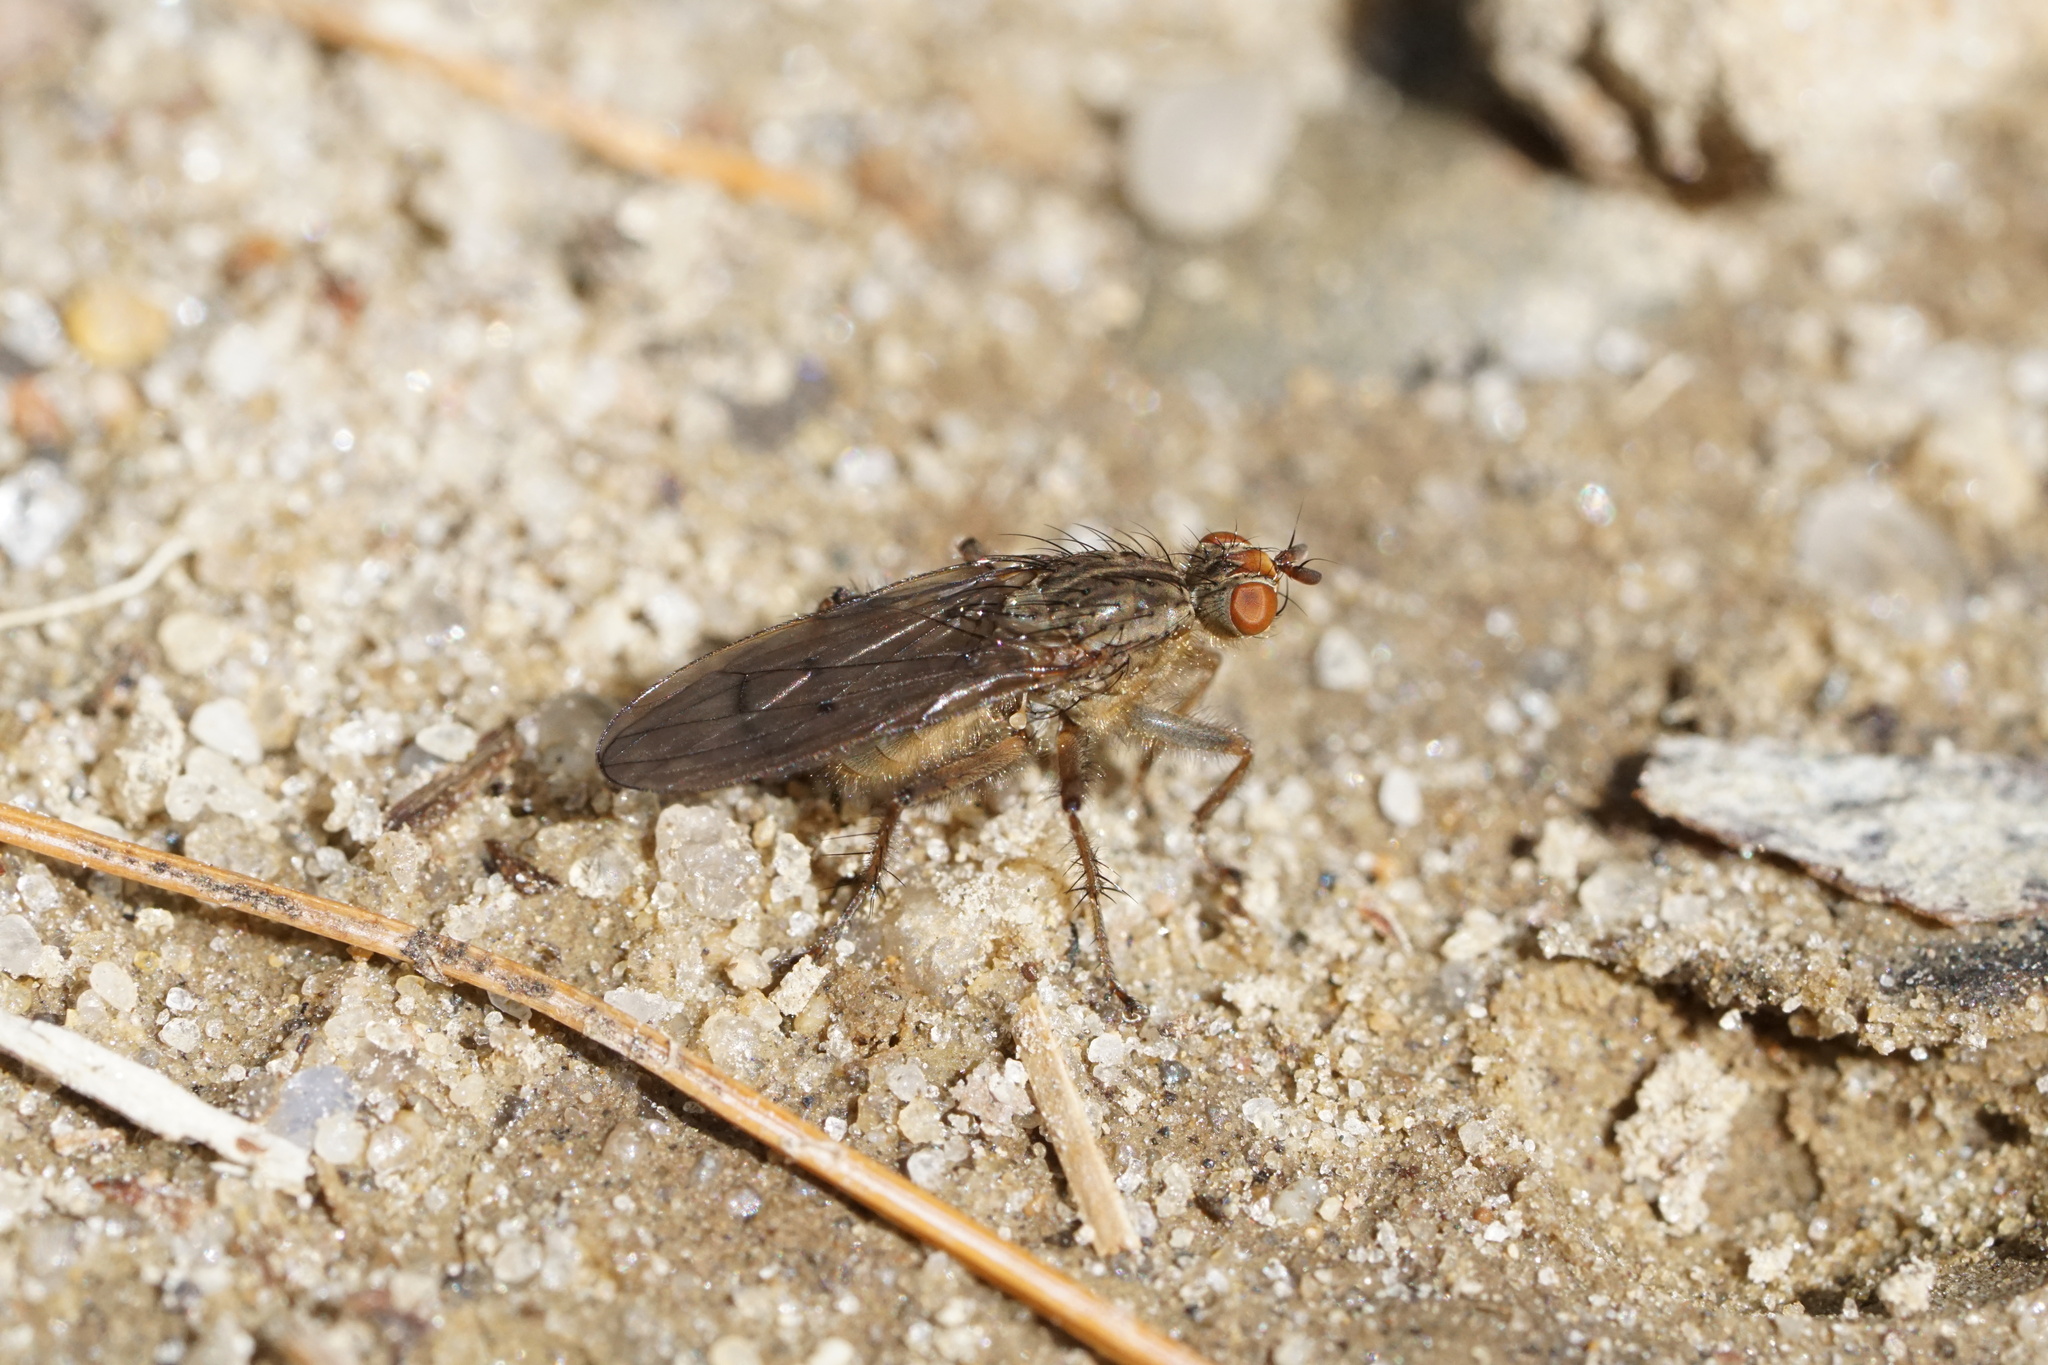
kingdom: Animalia
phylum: Arthropoda
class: Insecta
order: Diptera
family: Scathophagidae
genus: Scathophaga
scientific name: Scathophaga furcata
